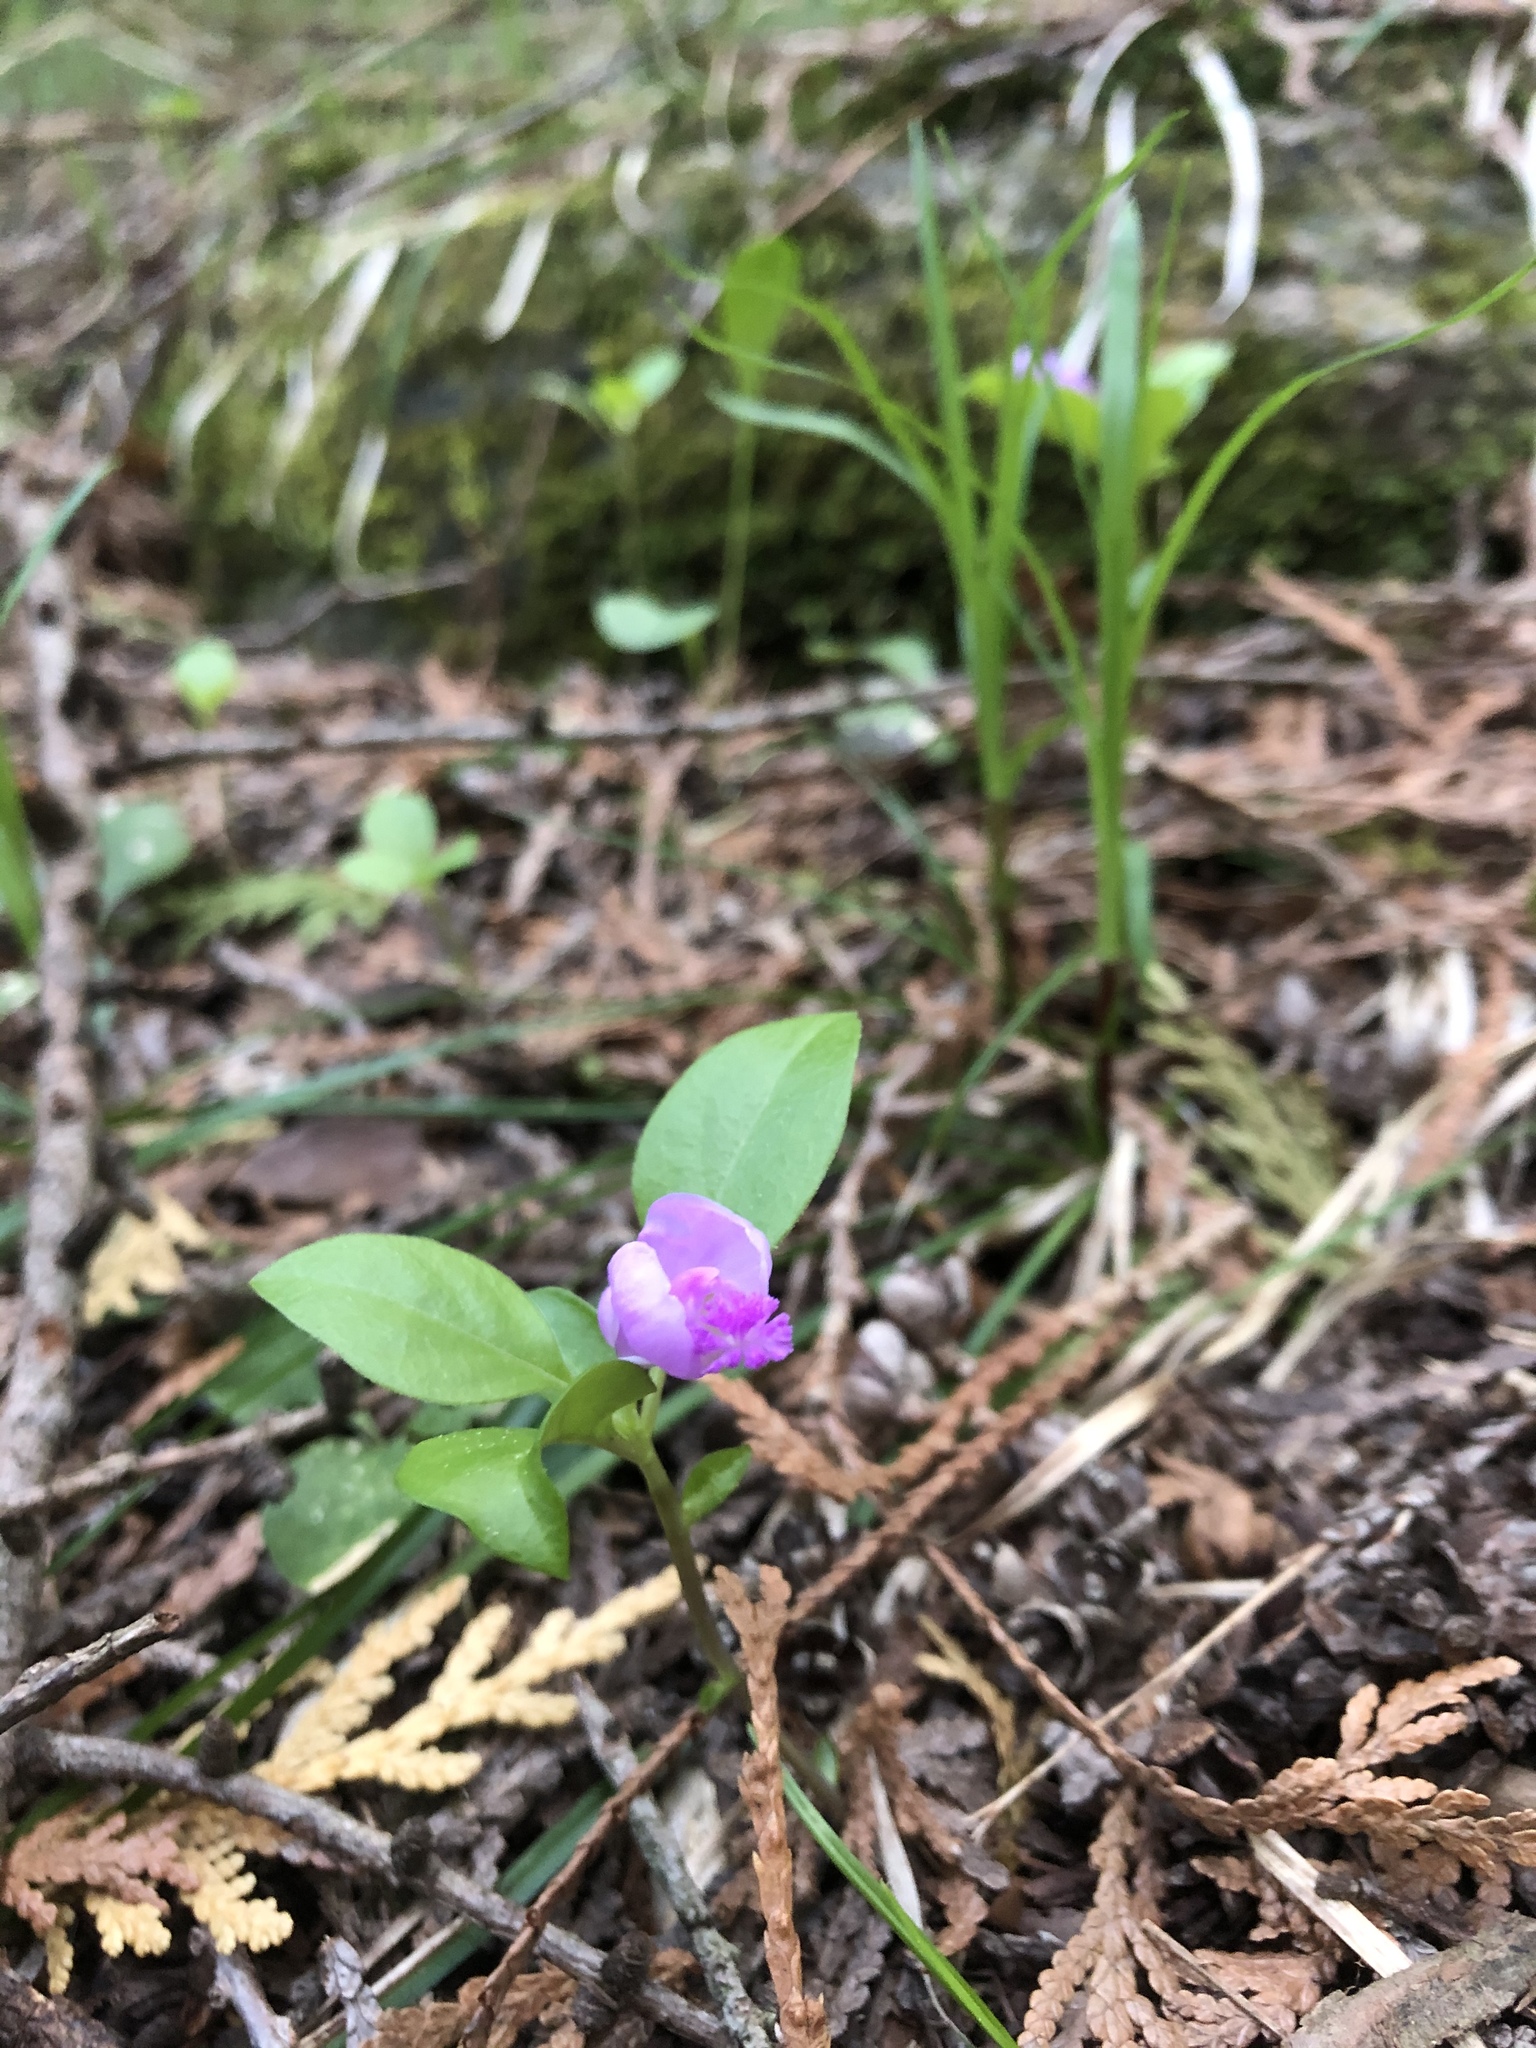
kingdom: Plantae
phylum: Tracheophyta
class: Magnoliopsida
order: Fabales
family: Polygalaceae
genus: Polygaloides
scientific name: Polygaloides paucifolia
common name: Bird-on-the-wing
